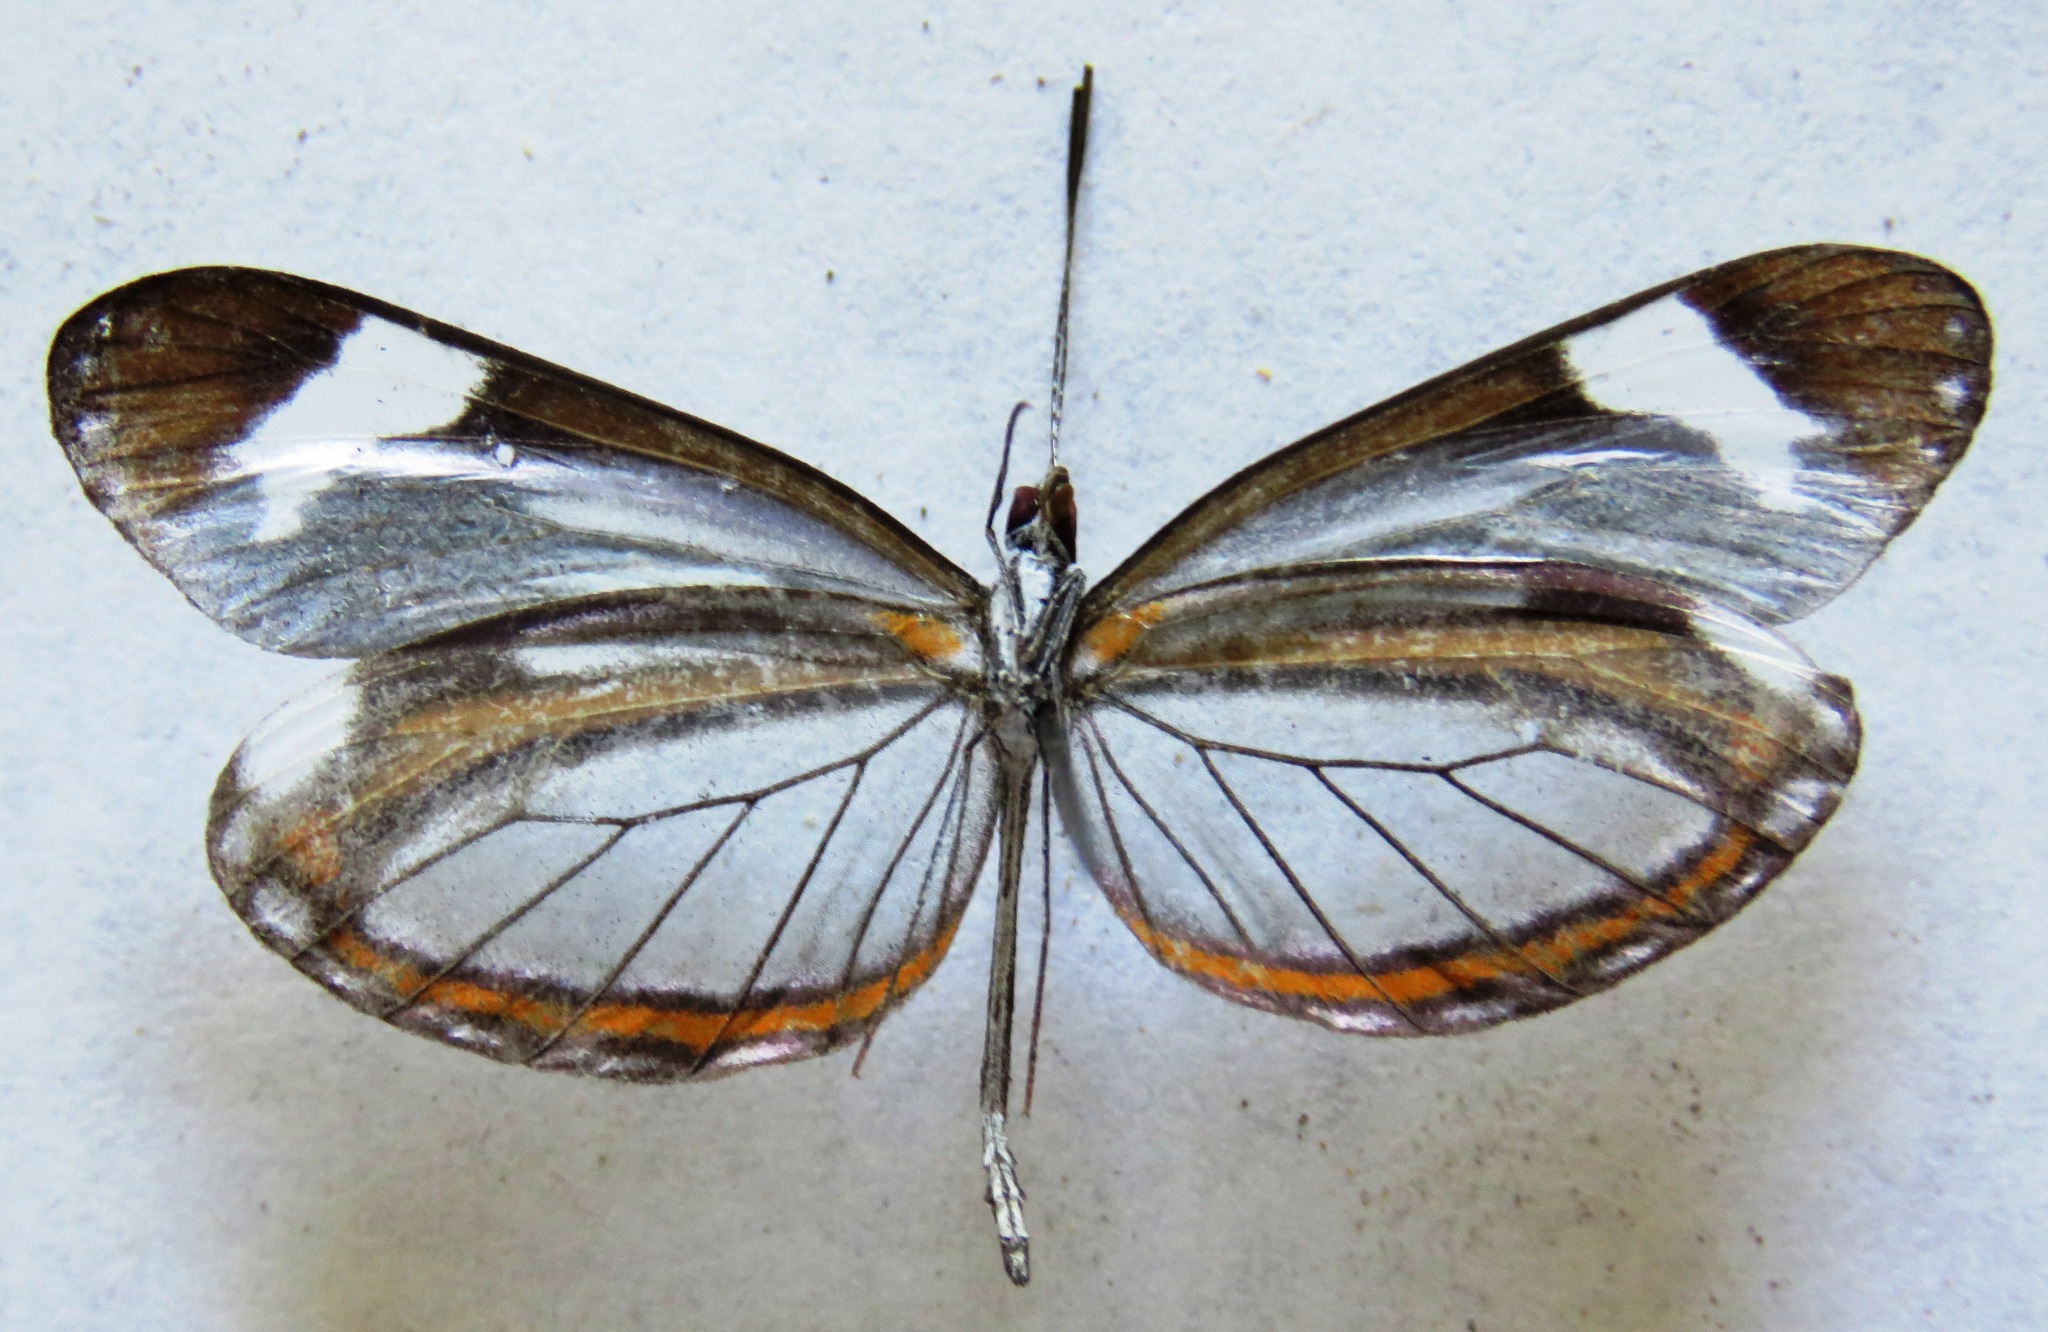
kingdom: Animalia
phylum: Arthropoda
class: Insecta
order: Lepidoptera
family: Pieridae
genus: Dismorphia
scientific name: Dismorphia theucharila
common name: Clearwing mimic-white
